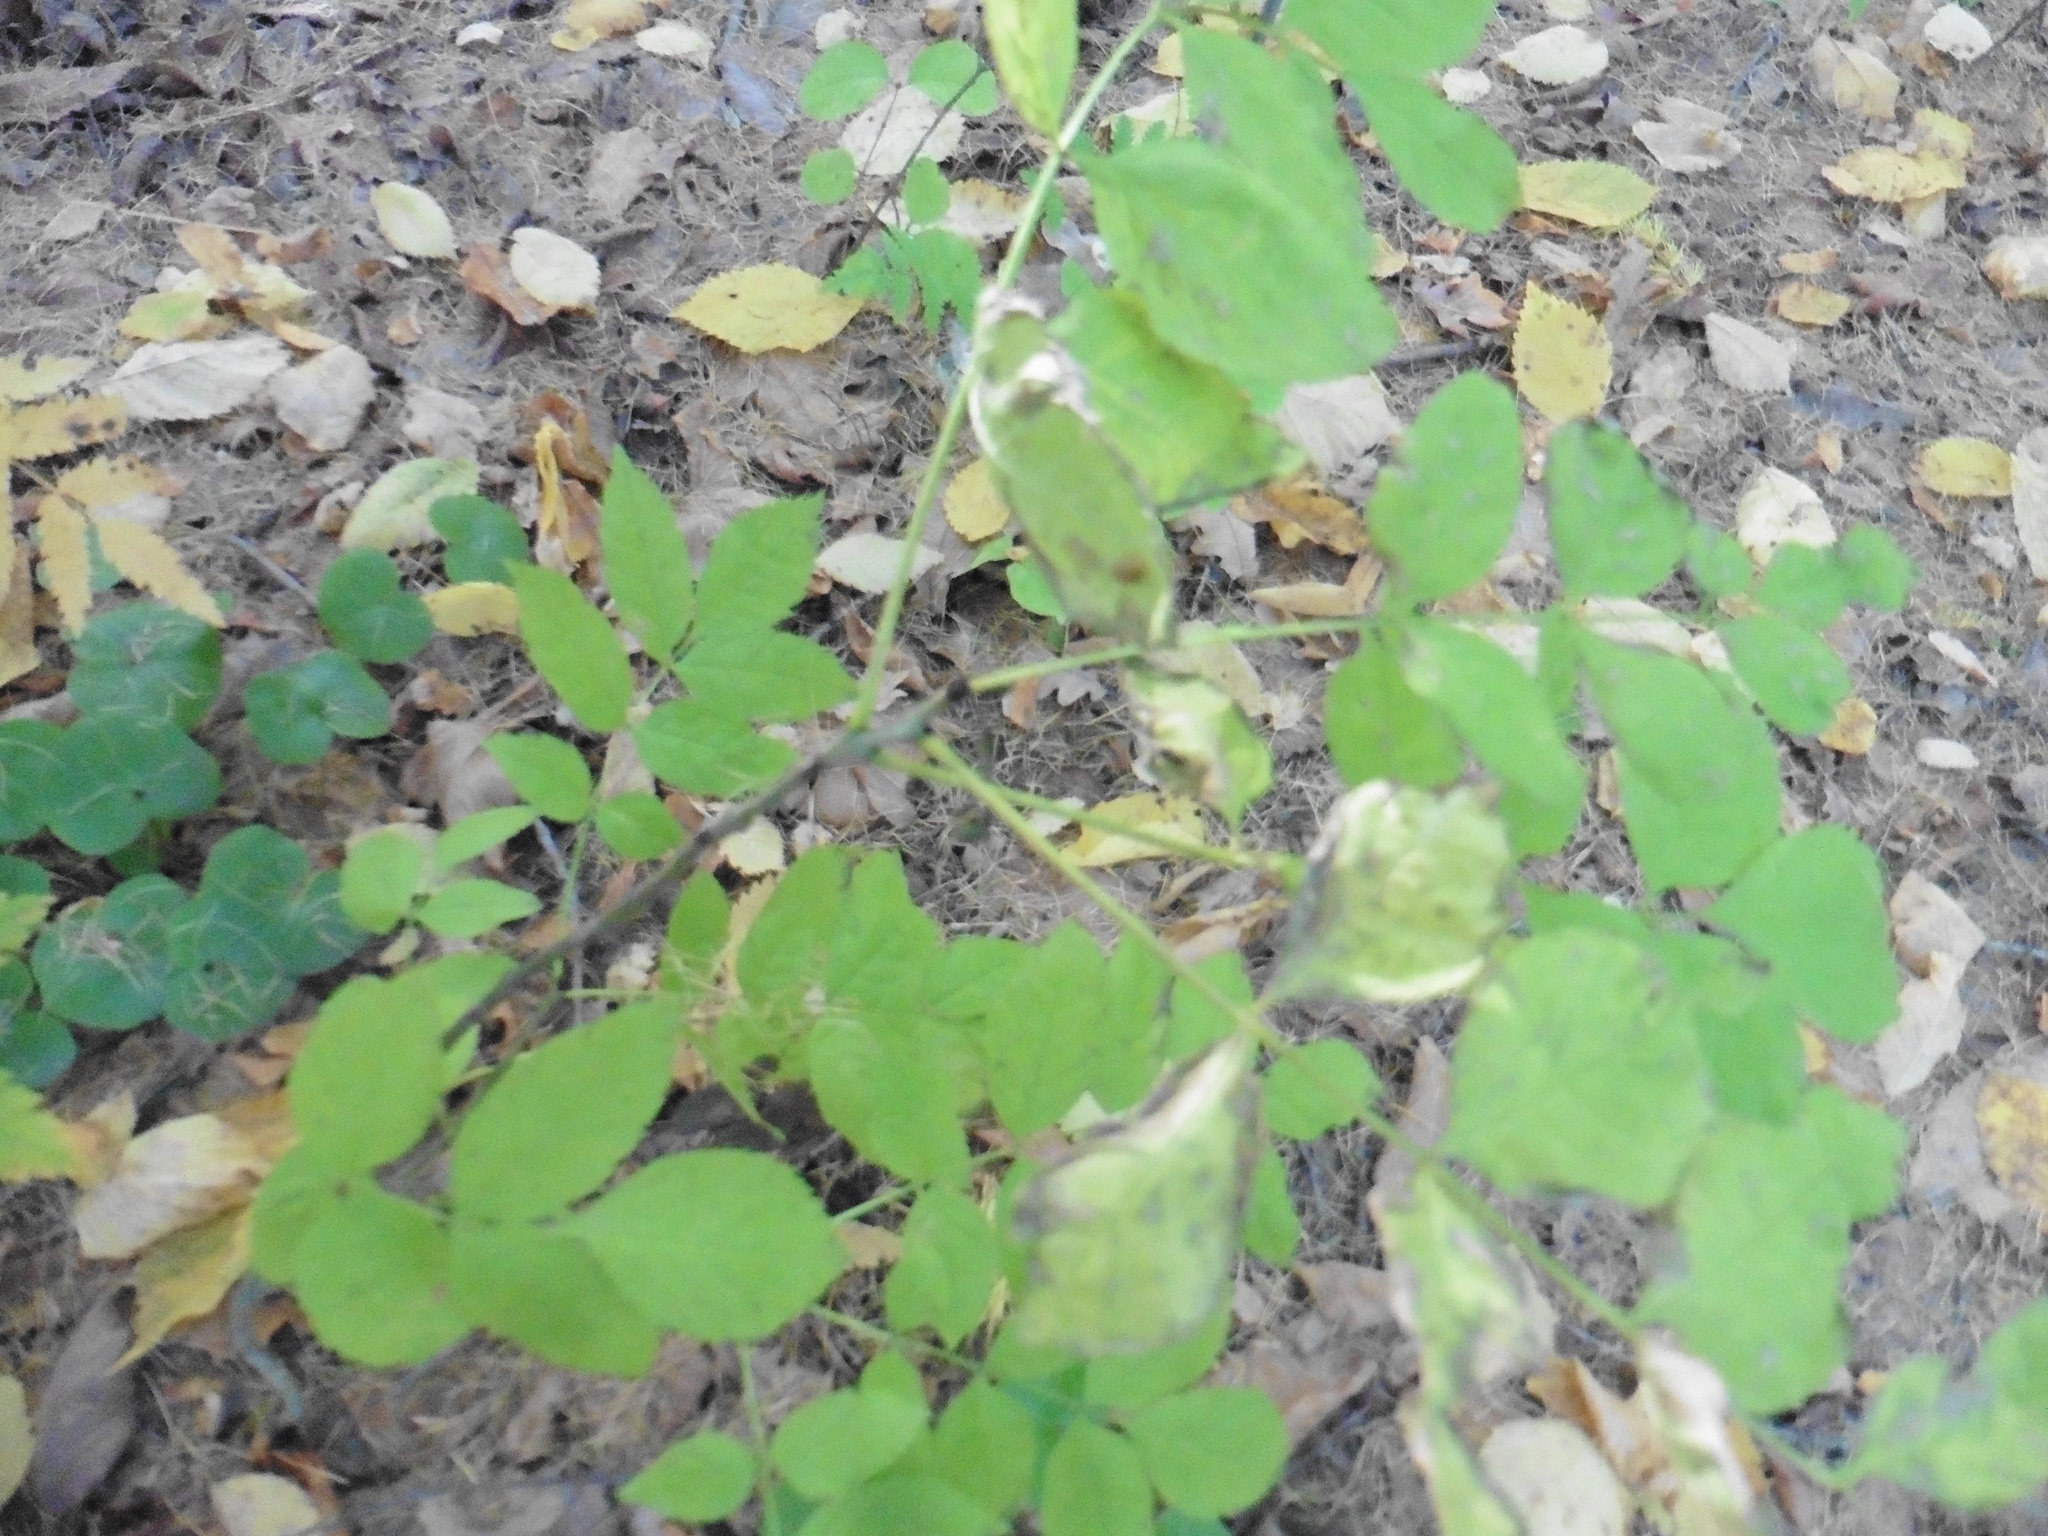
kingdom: Plantae
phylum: Tracheophyta
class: Magnoliopsida
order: Lamiales
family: Oleaceae
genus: Fraxinus
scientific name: Fraxinus excelsior
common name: European ash
